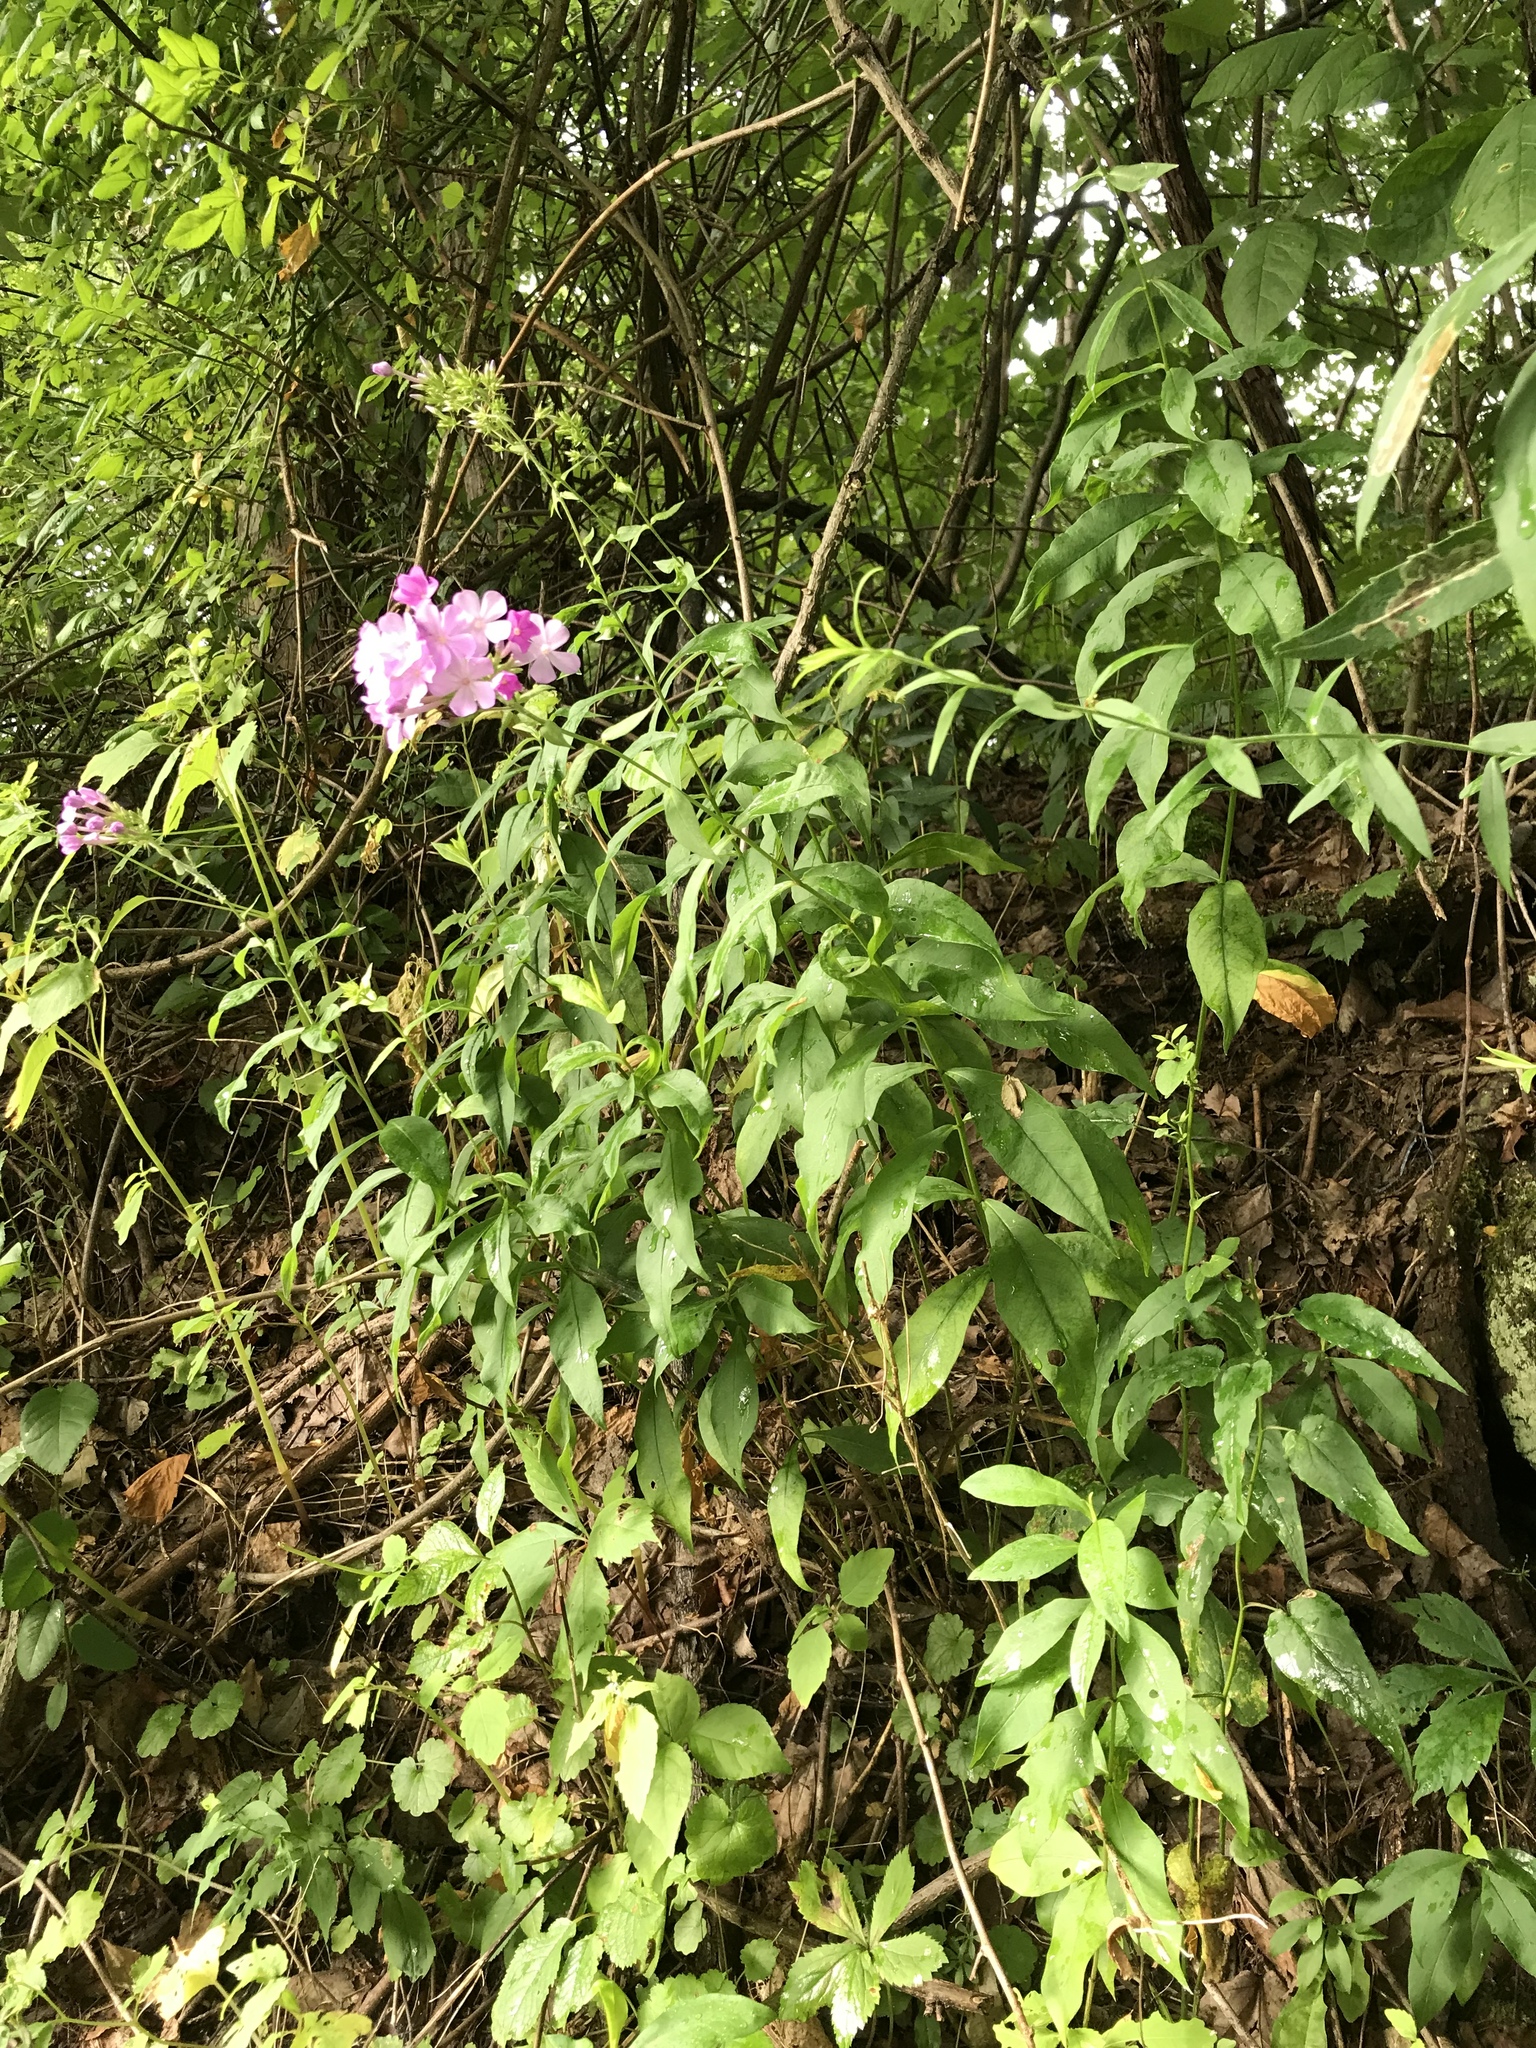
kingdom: Plantae
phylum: Tracheophyta
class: Magnoliopsida
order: Ericales
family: Polemoniaceae
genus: Phlox
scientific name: Phlox paniculata
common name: Fall phlox
